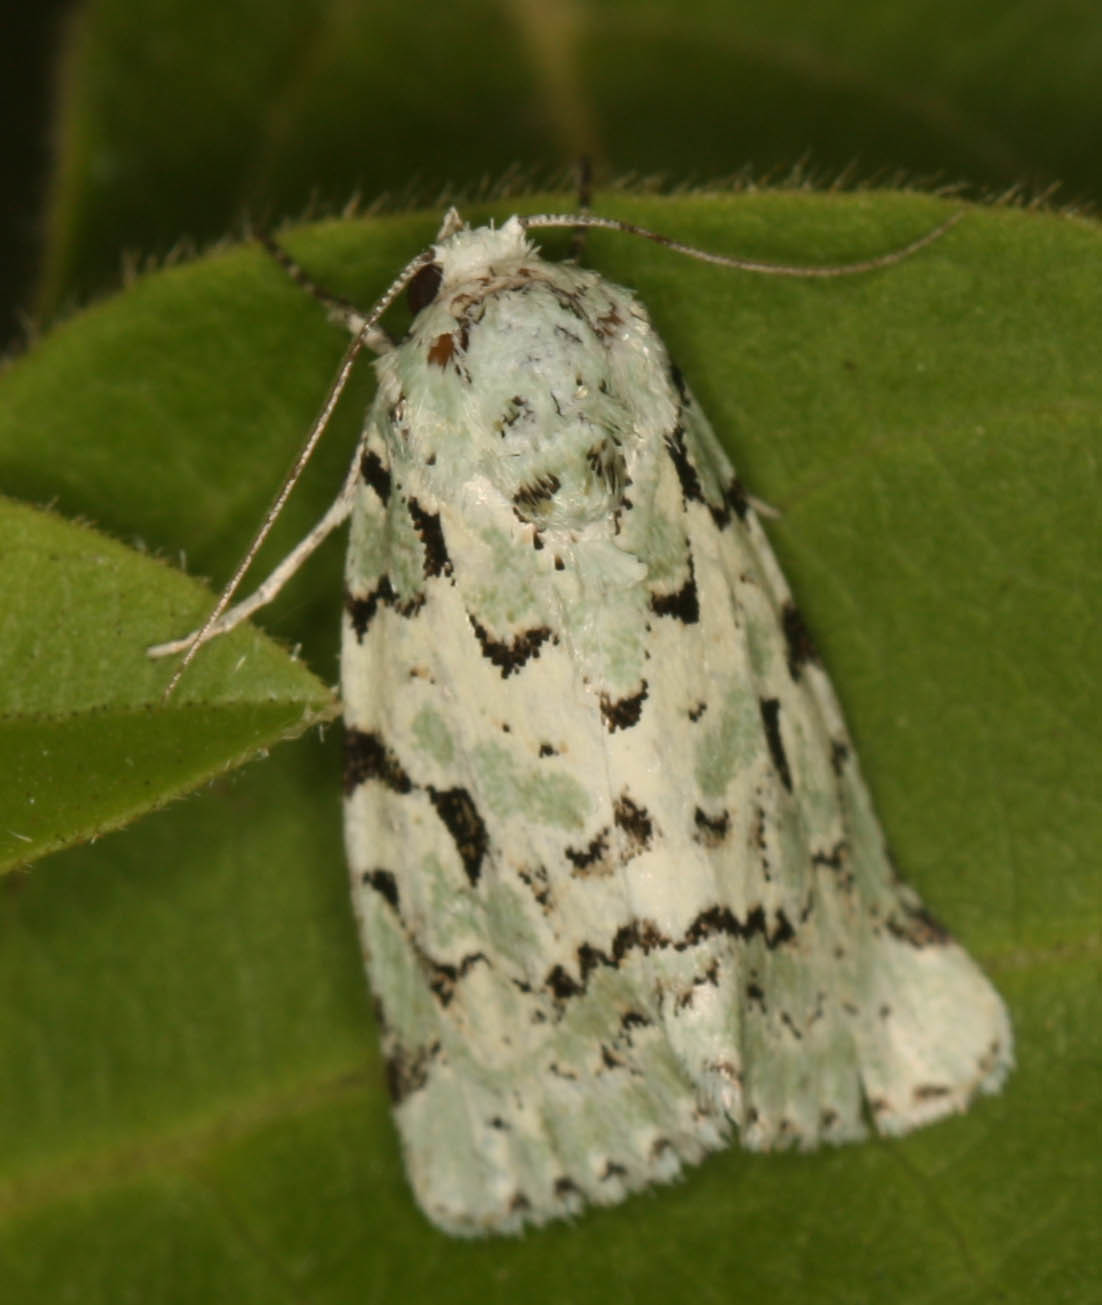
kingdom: Animalia
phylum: Arthropoda
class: Insecta
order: Lepidoptera
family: Noctuidae
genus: Bryolymnia
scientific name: Bryolymnia viridata
